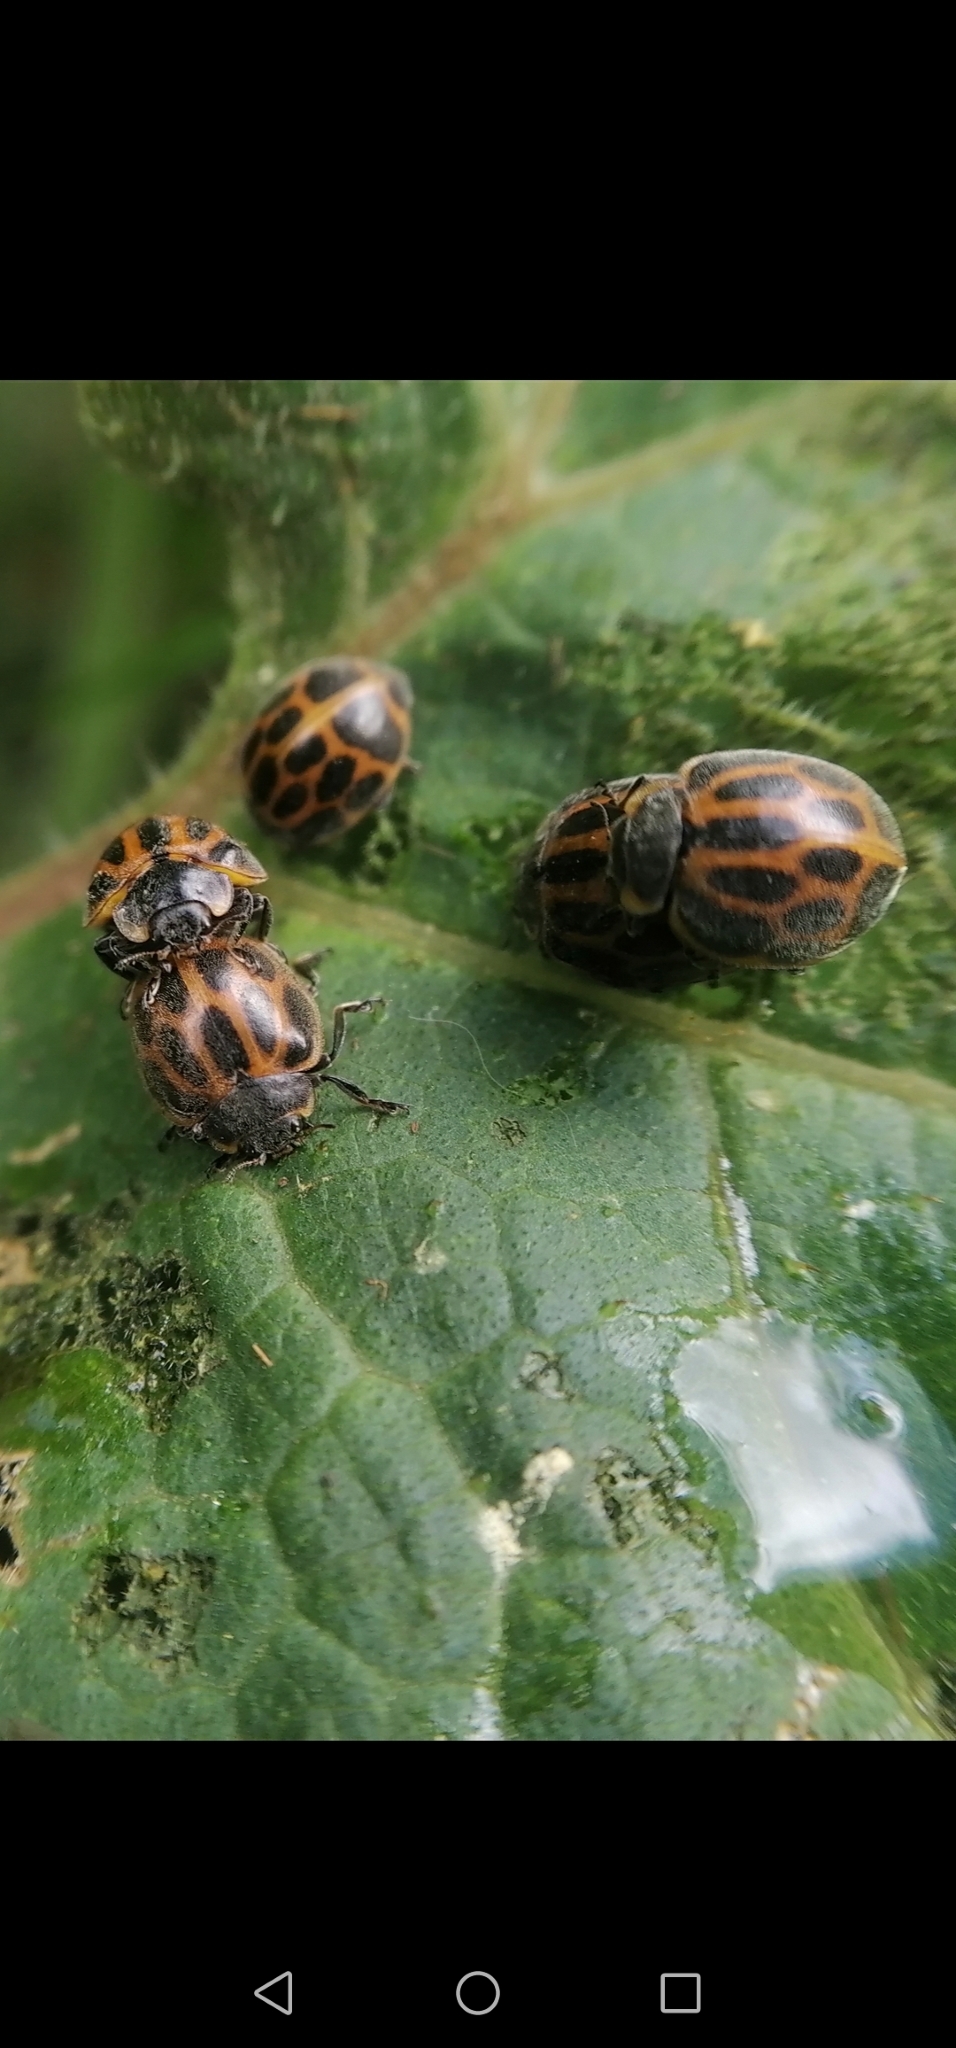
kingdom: Animalia
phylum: Arthropoda
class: Insecta
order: Coleoptera
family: Coccinellidae
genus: Epilachna
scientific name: Epilachna
